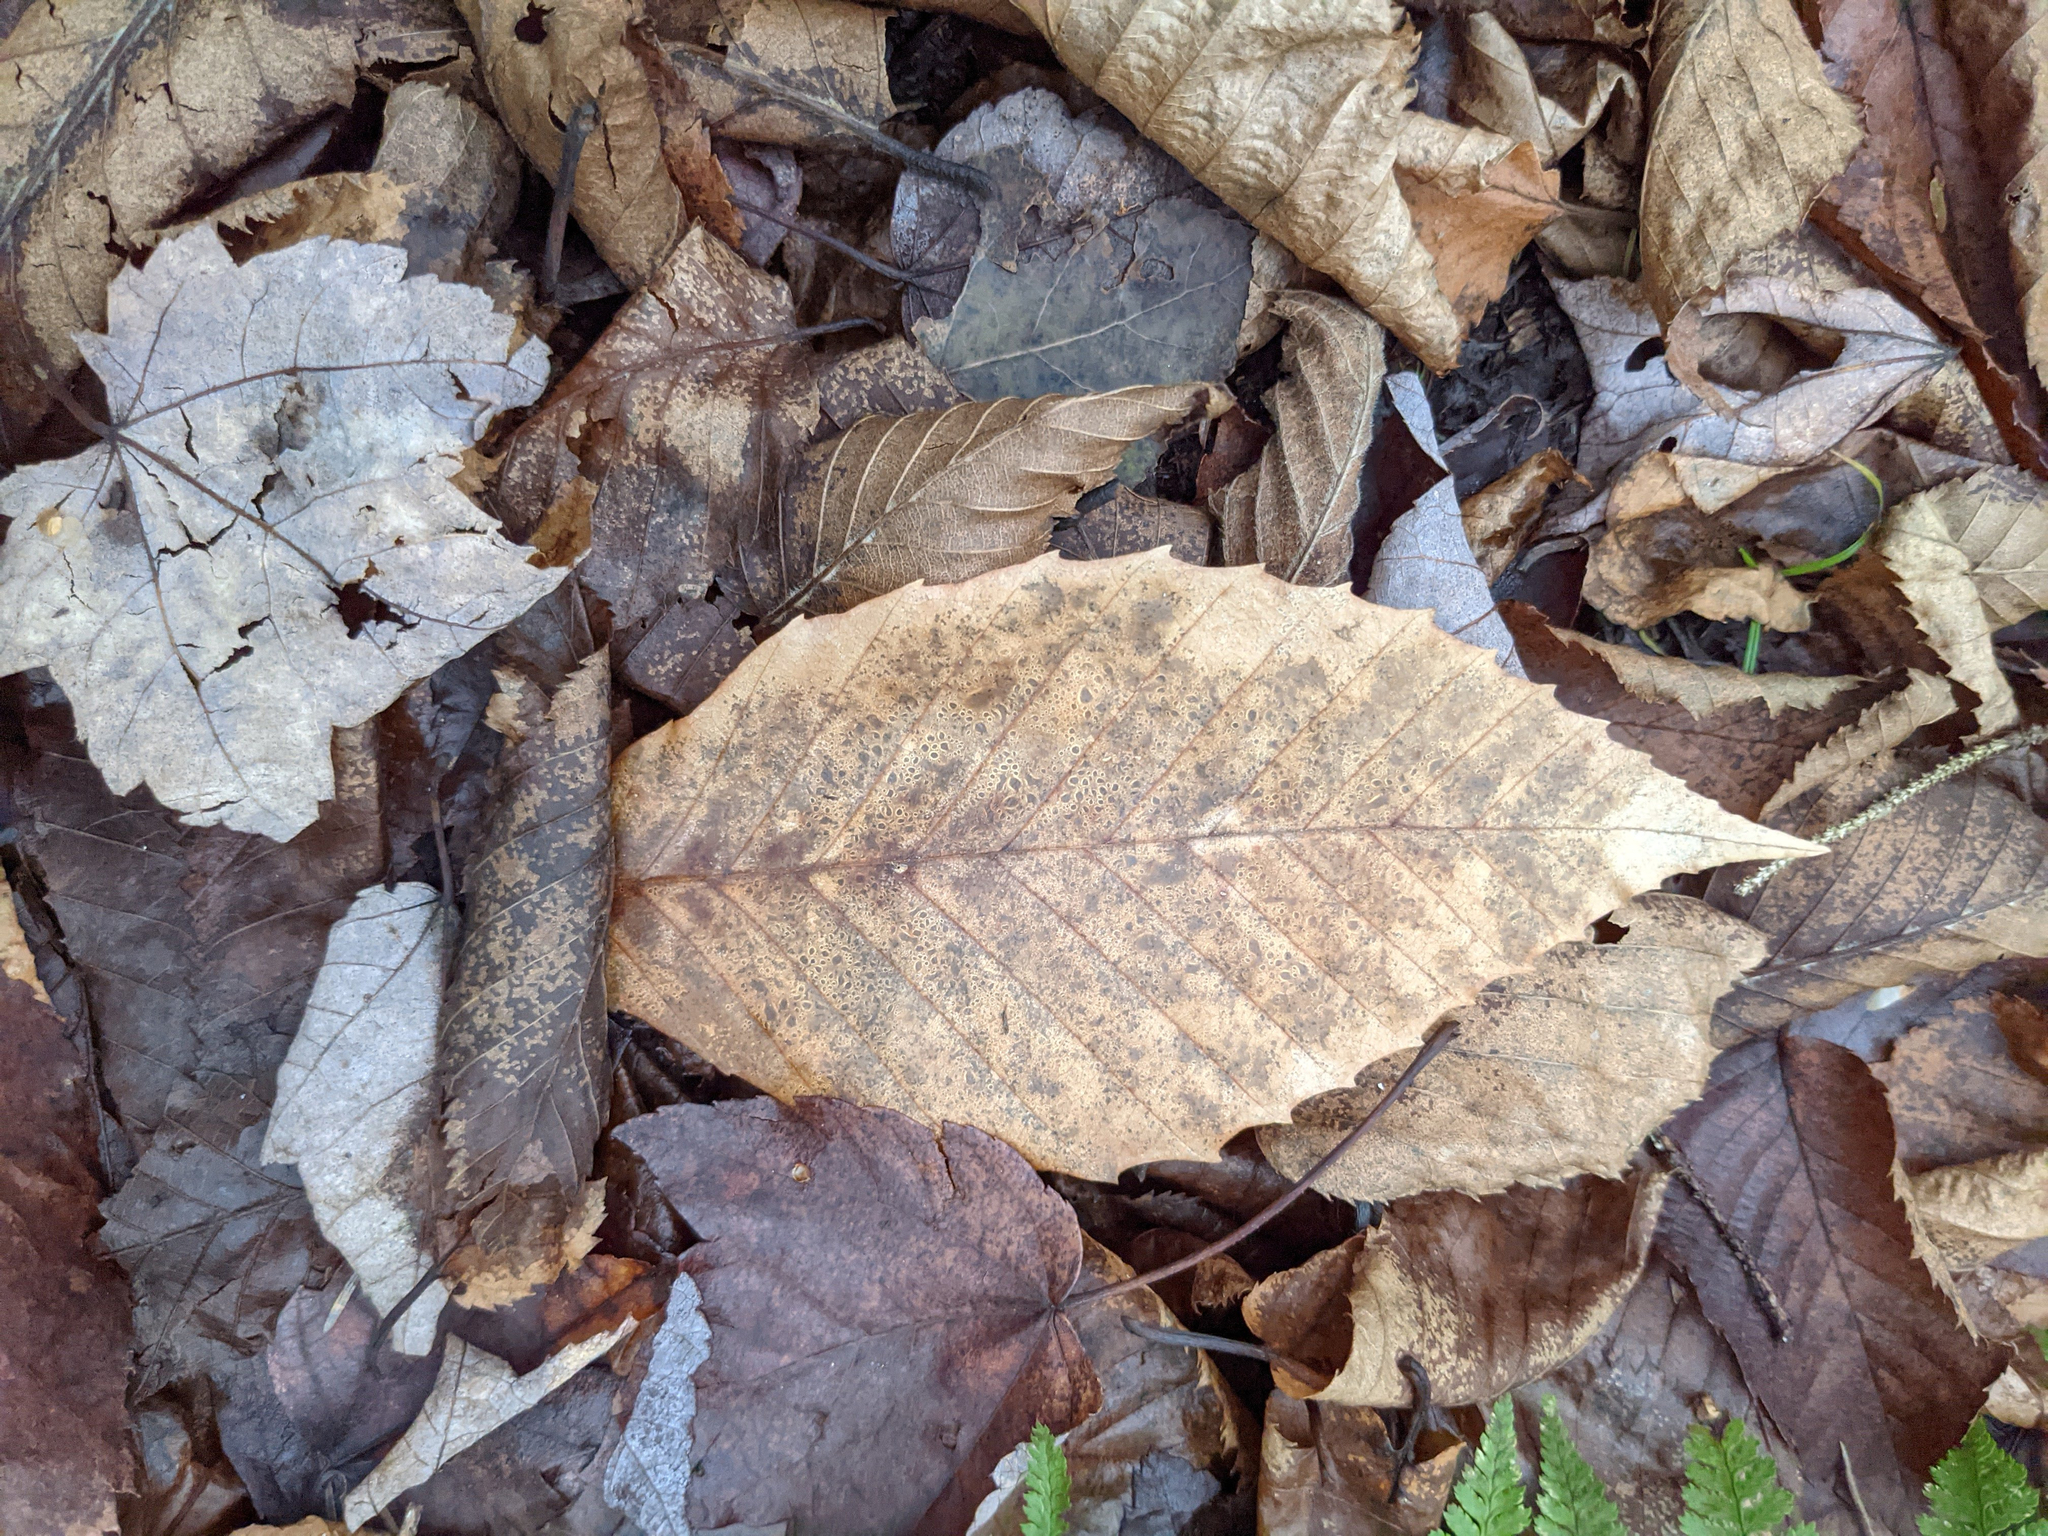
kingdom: Plantae
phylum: Tracheophyta
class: Magnoliopsida
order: Fagales
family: Fagaceae
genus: Fagus
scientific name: Fagus grandifolia
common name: American beech
